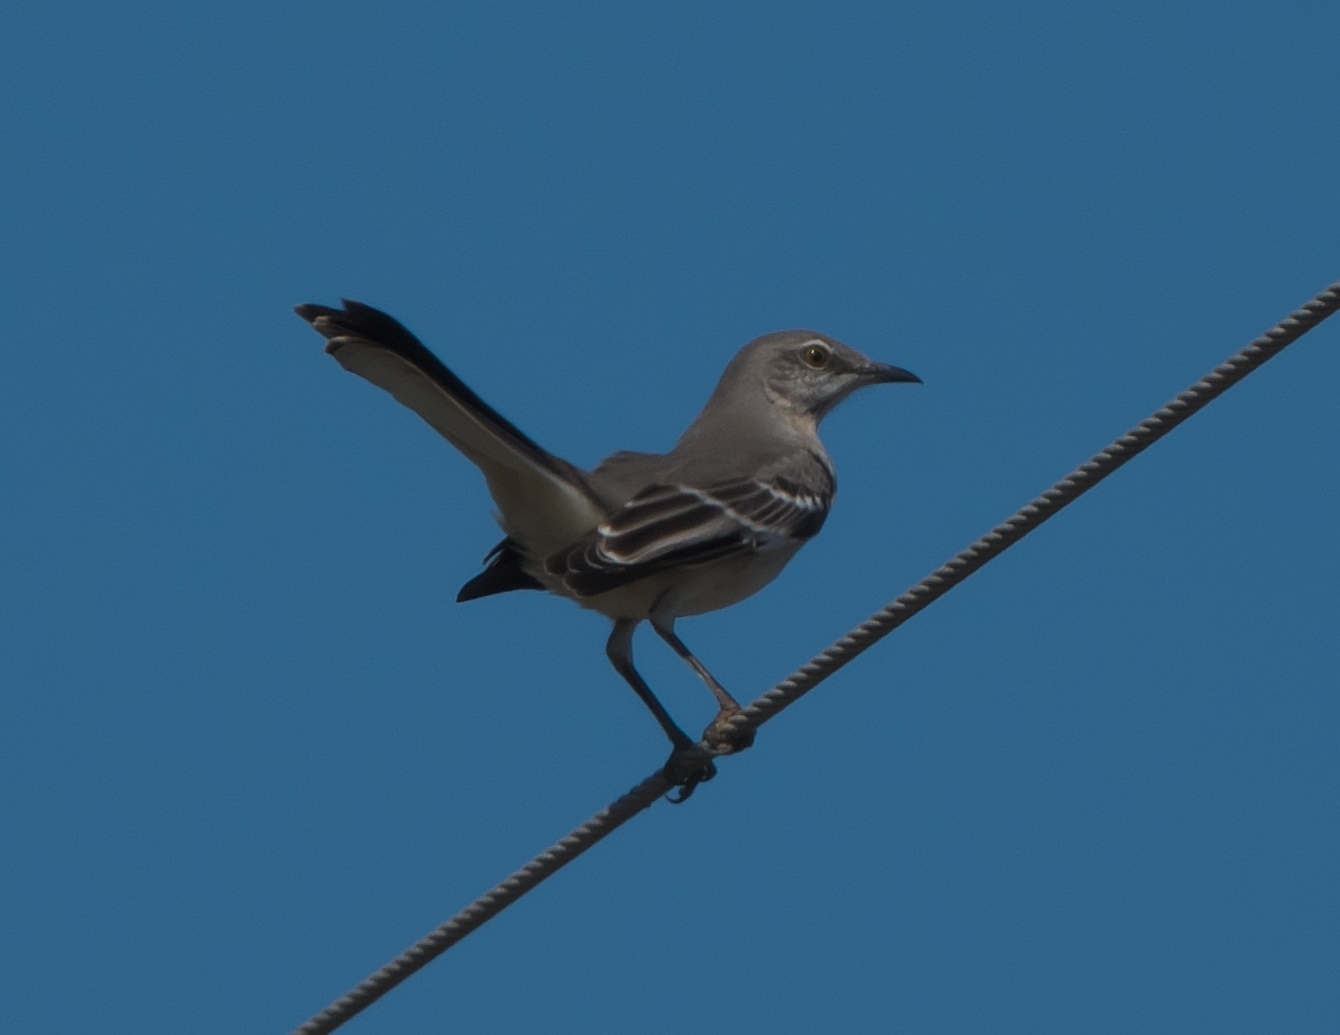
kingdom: Animalia
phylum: Chordata
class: Aves
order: Passeriformes
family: Mimidae
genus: Mimus
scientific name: Mimus polyglottos
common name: Northern mockingbird
